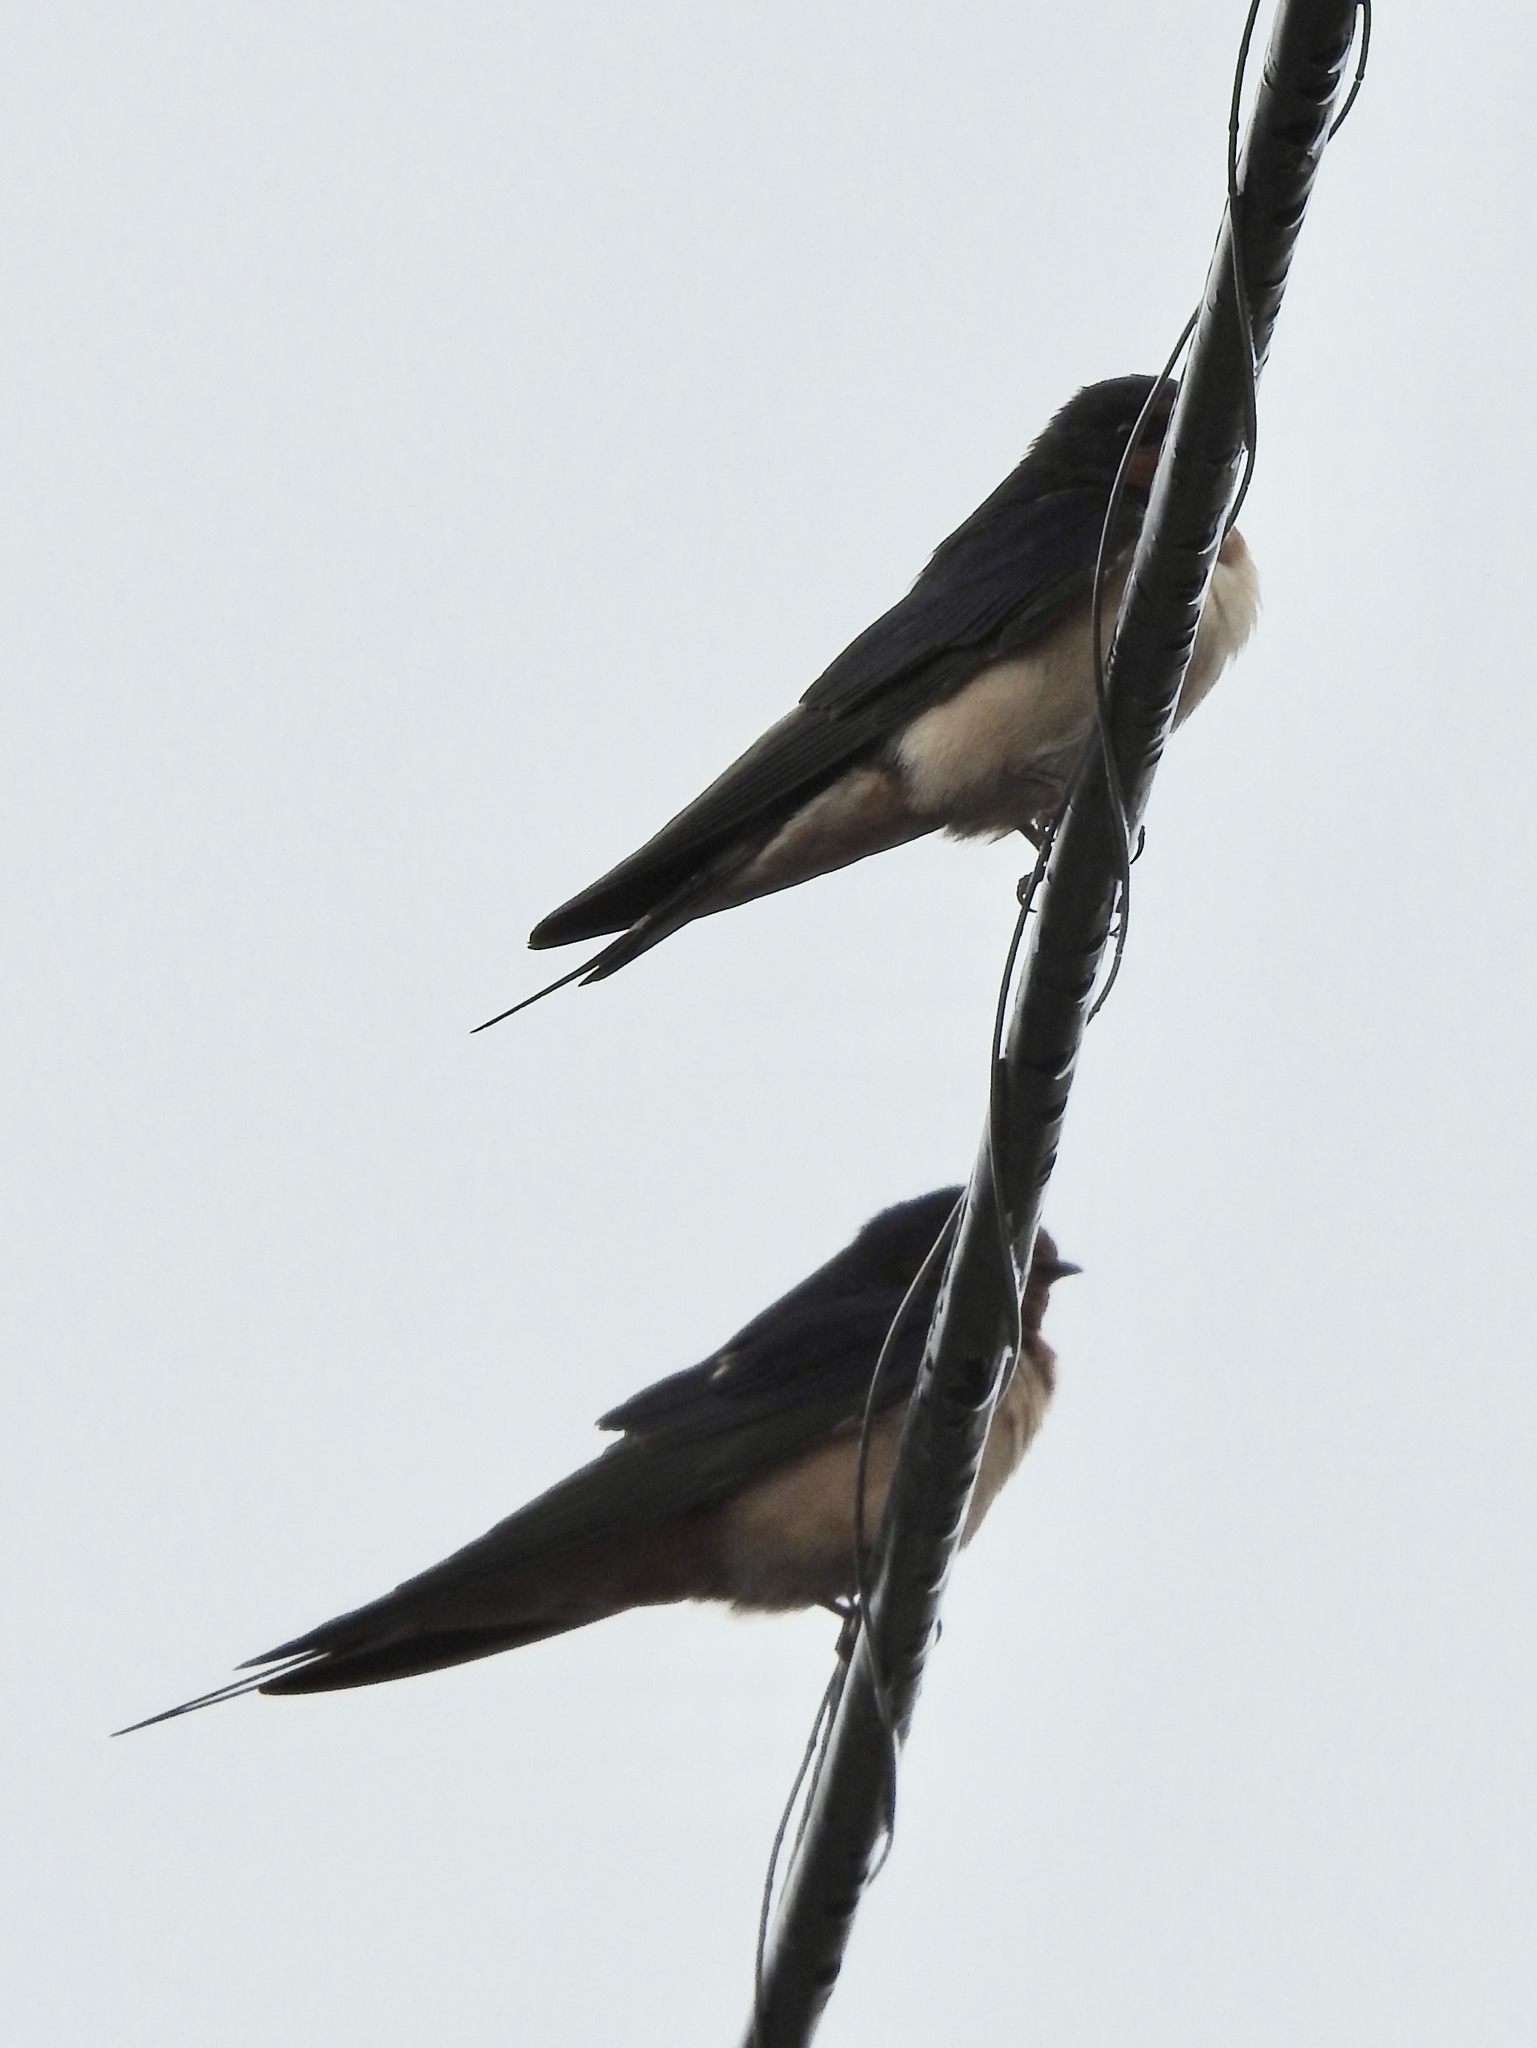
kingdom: Animalia
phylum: Chordata
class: Aves
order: Passeriformes
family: Hirundinidae
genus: Hirundo
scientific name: Hirundo rustica
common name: Barn swallow
